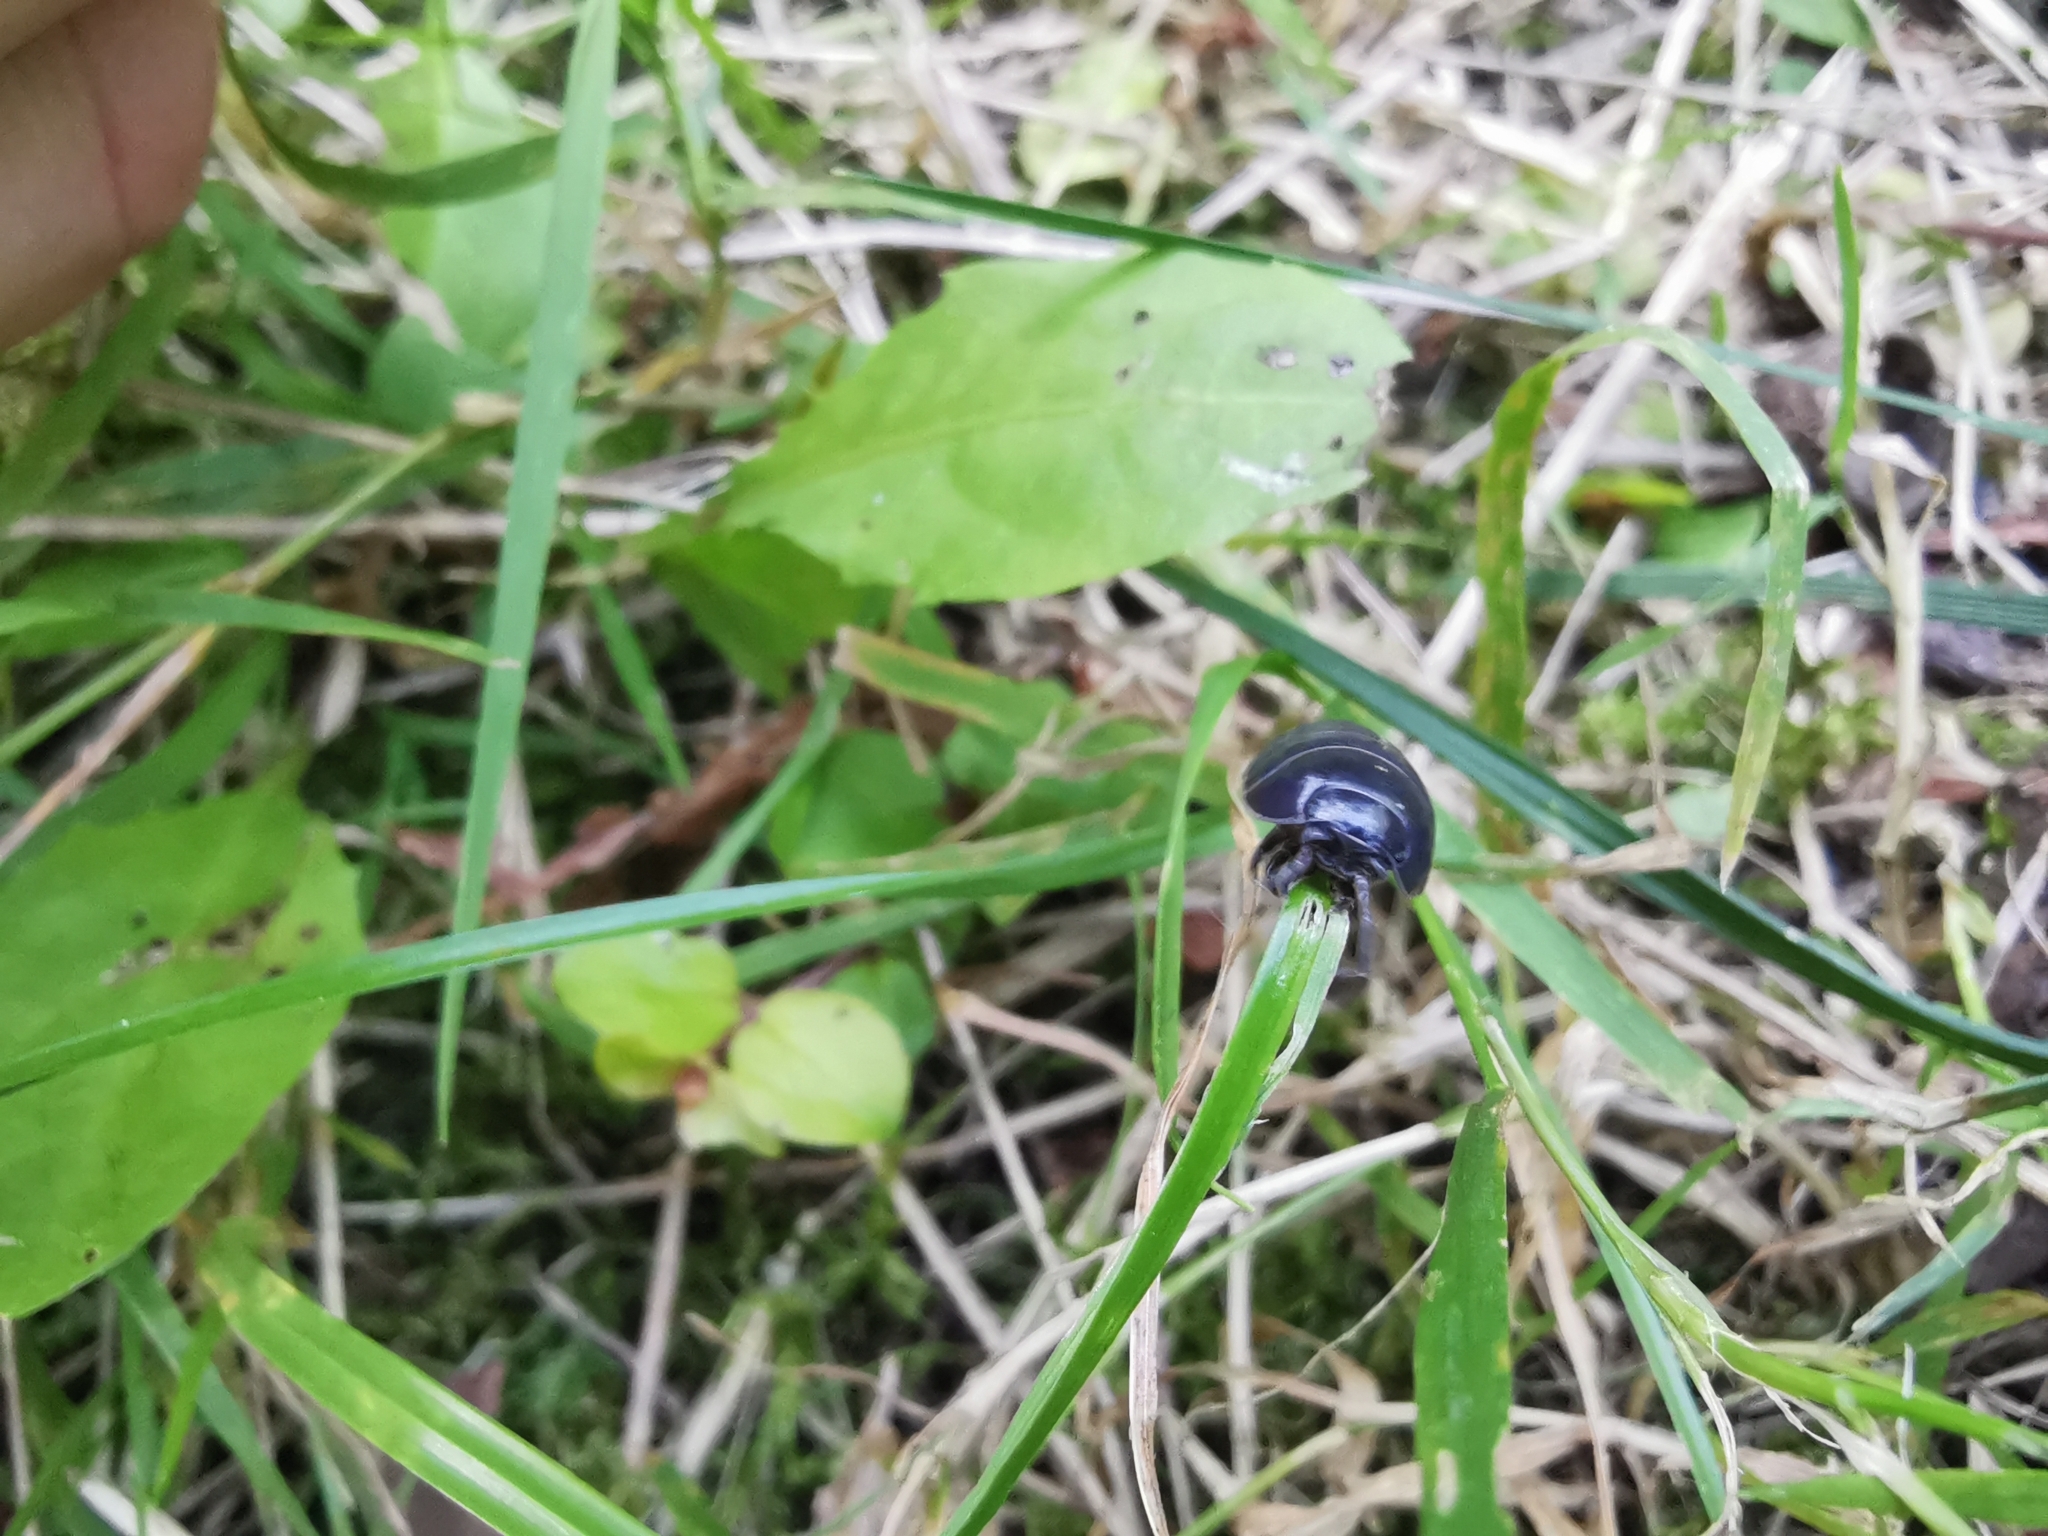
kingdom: Animalia
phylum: Arthropoda
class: Malacostraca
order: Isopoda
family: Armadillidiidae
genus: Armadillidium
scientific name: Armadillidium vulgare
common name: Common pill woodlouse
